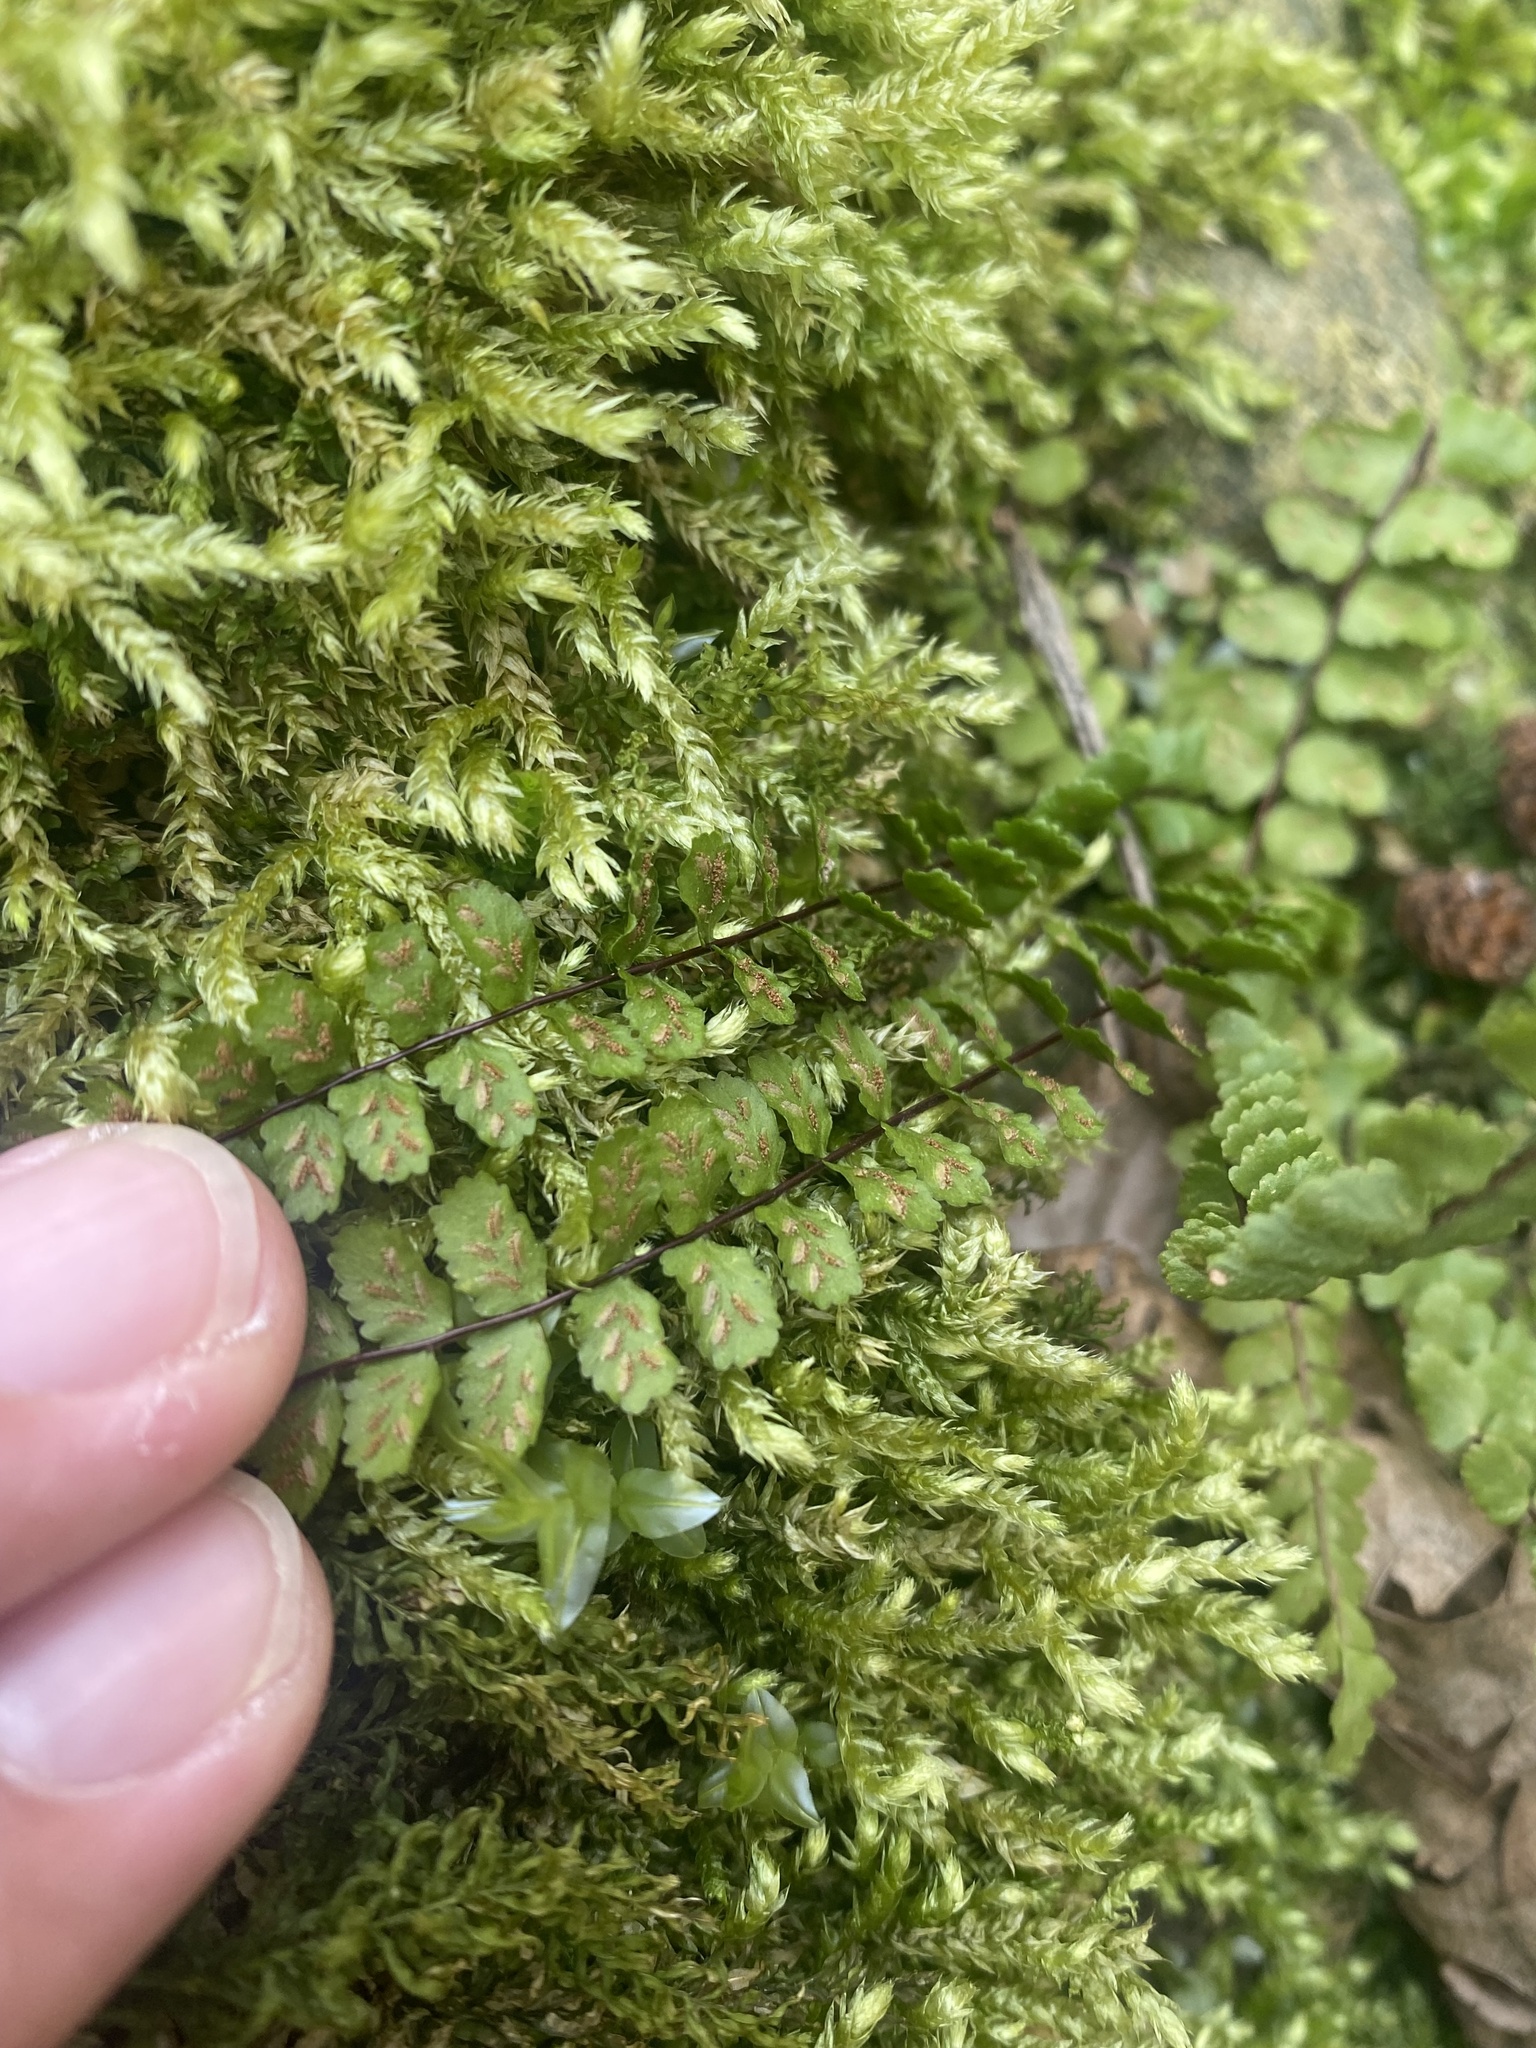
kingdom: Plantae
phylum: Tracheophyta
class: Polypodiopsida
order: Polypodiales
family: Aspleniaceae
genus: Asplenium
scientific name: Asplenium trichomanes
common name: Maidenhair spleenwort
